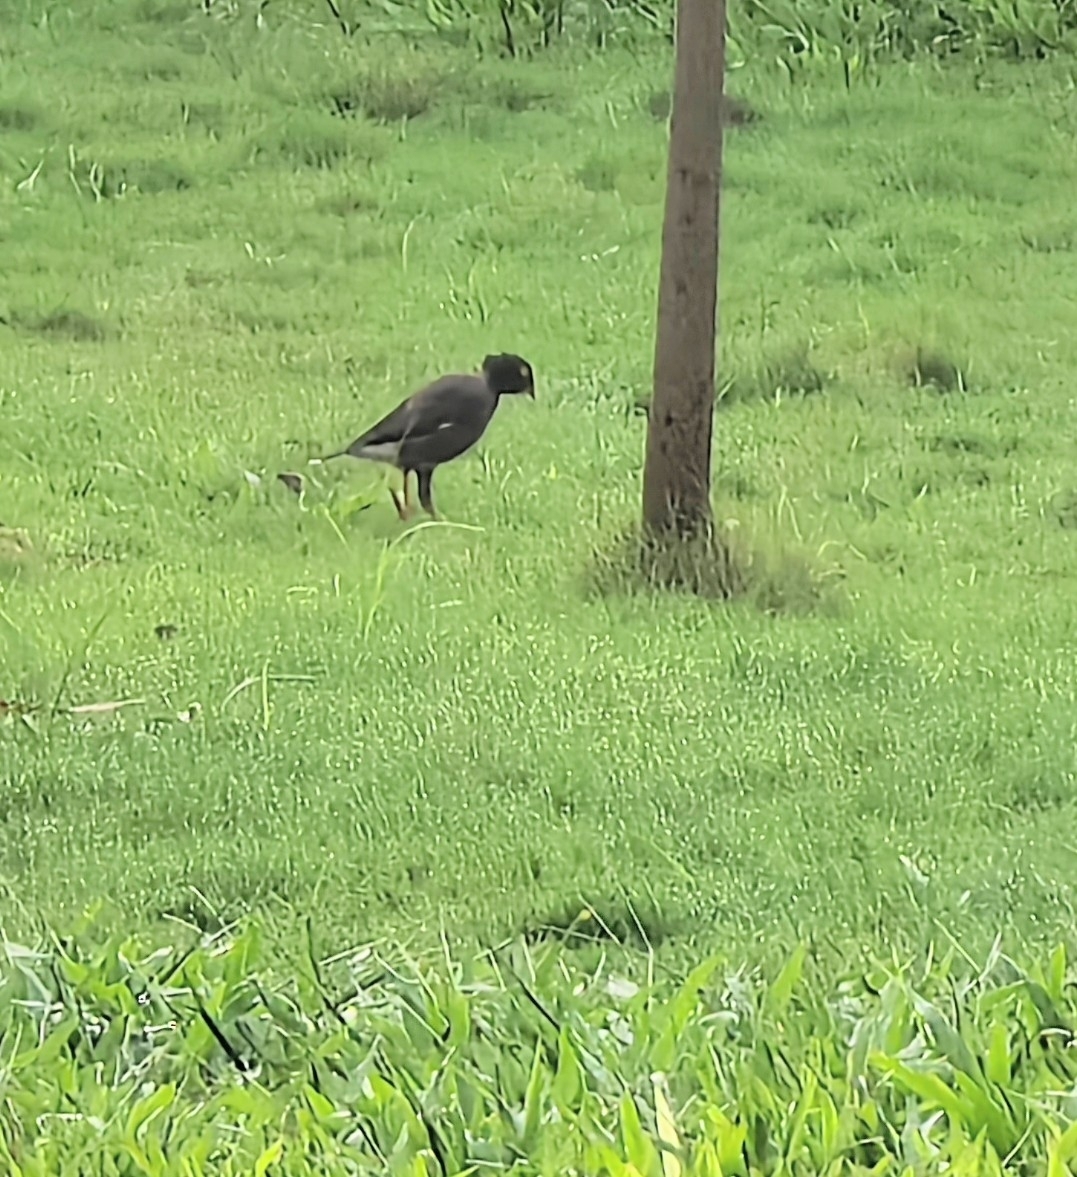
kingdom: Animalia
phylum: Chordata
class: Aves
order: Passeriformes
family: Sturnidae
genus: Acridotheres
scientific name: Acridotheres tristis
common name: Common myna
